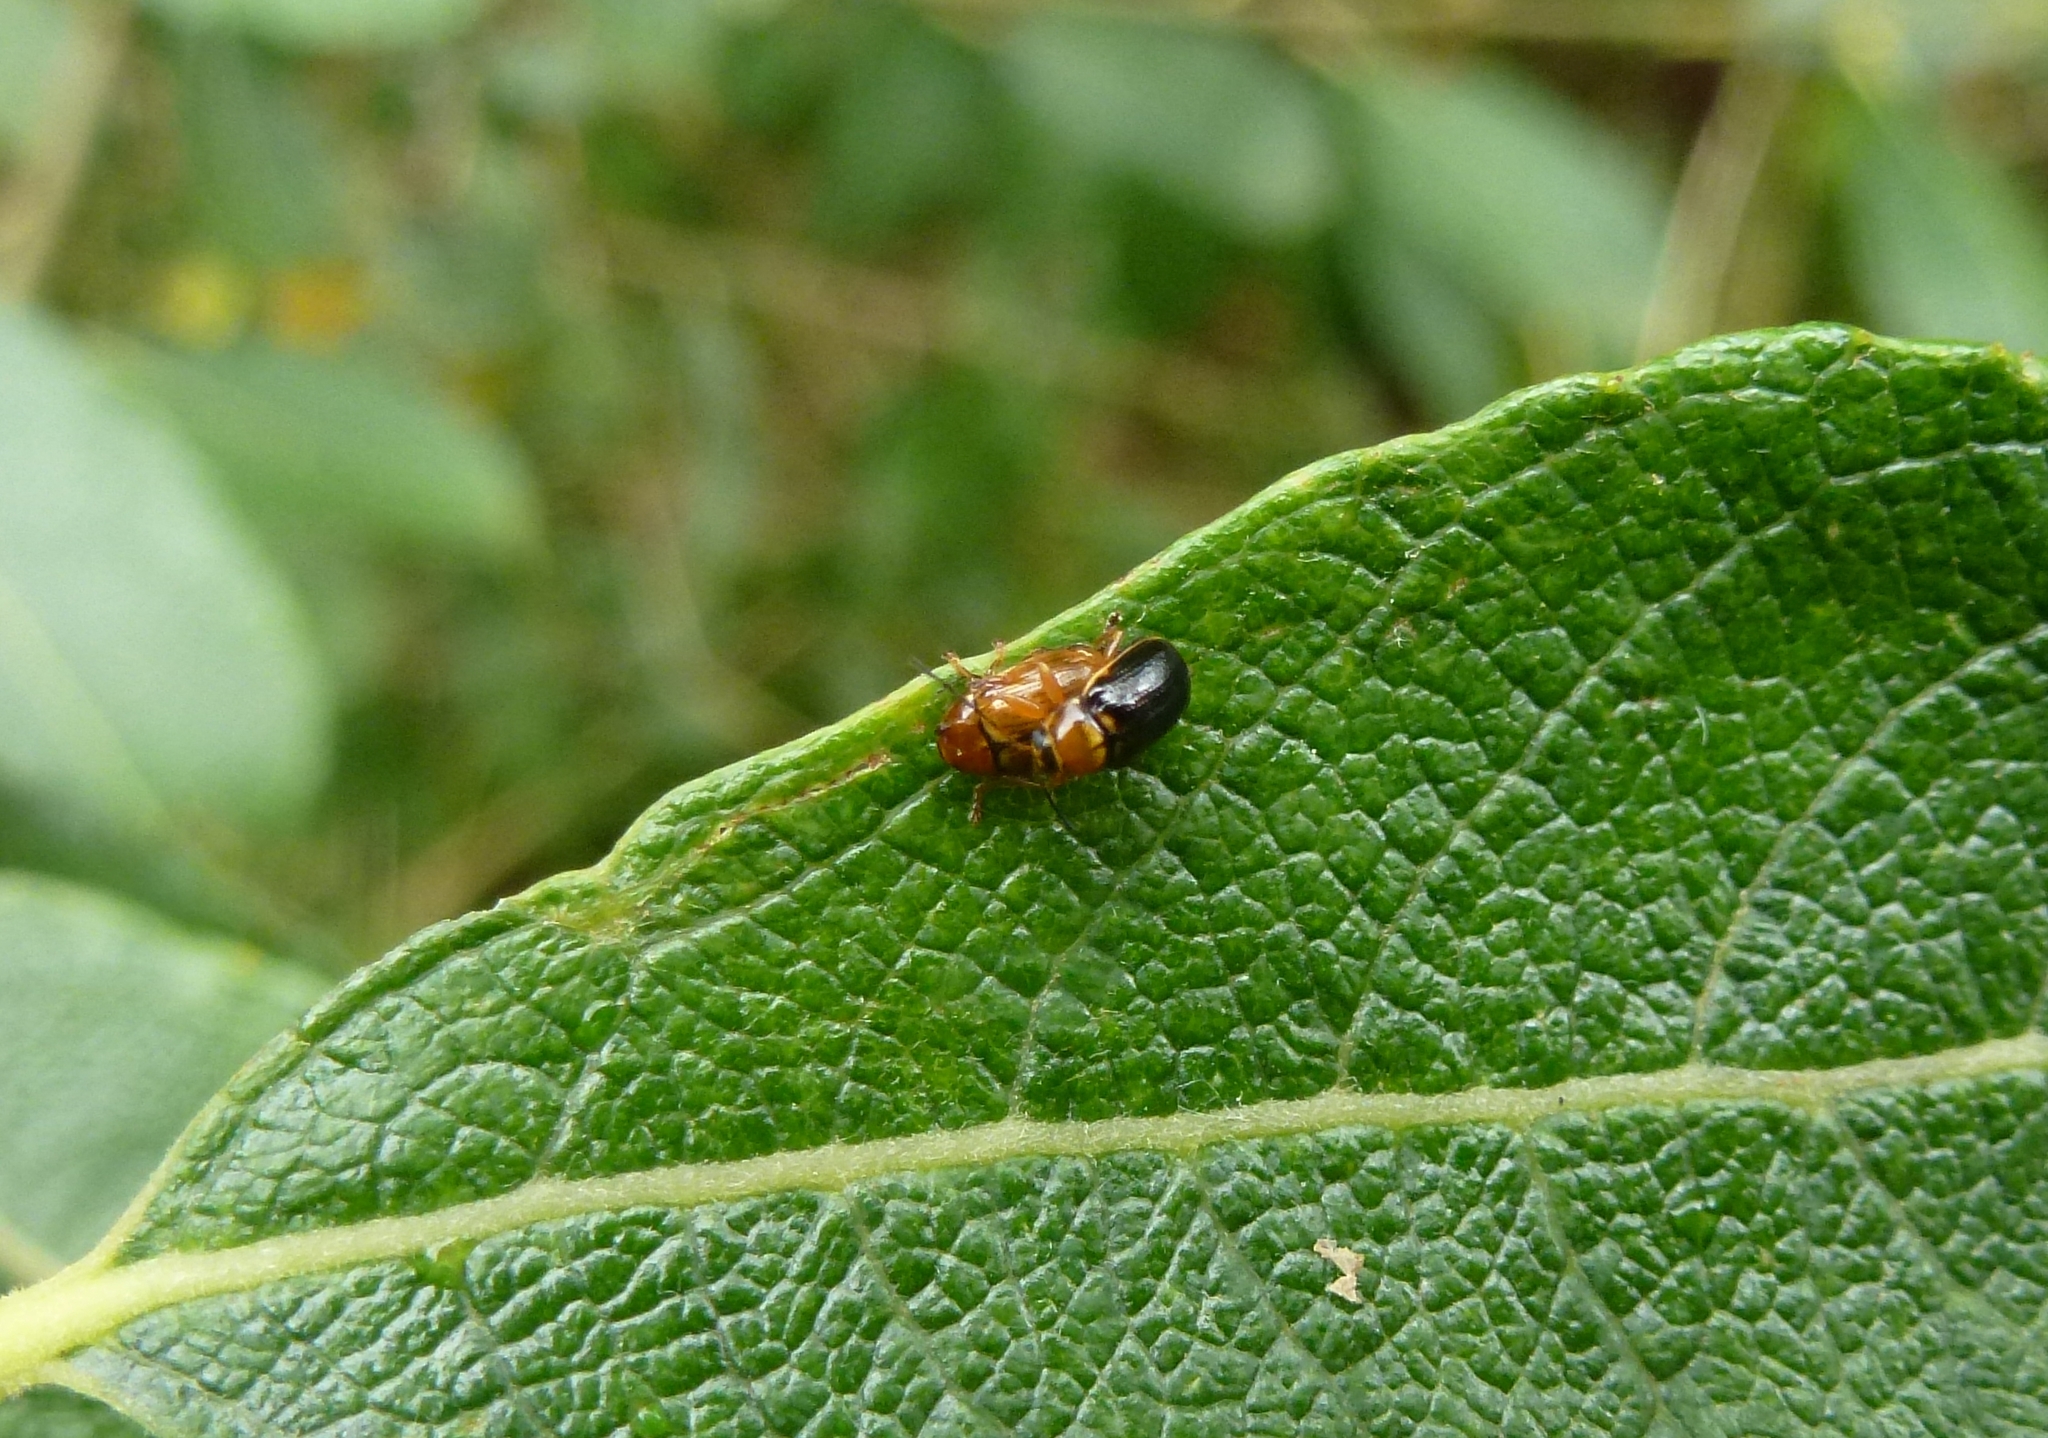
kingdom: Animalia
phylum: Arthropoda
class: Insecta
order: Coleoptera
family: Chrysomelidae
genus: Cryptocephalus
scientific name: Cryptocephalus pusillus
